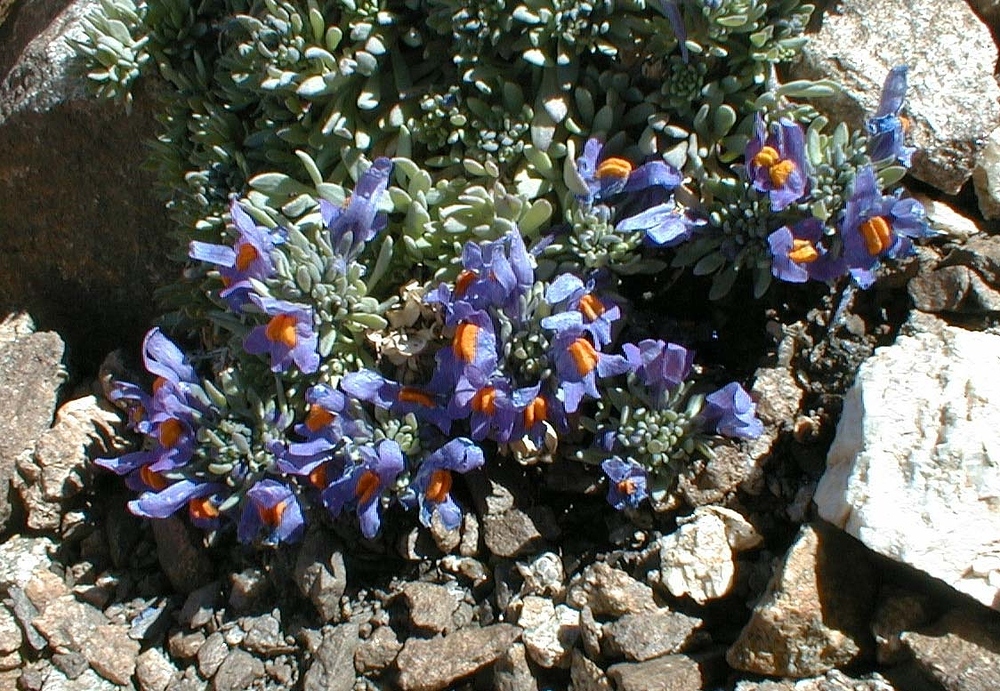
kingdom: Plantae
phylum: Tracheophyta
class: Magnoliopsida
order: Lamiales
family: Plantaginaceae
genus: Linaria
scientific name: Linaria alpina
